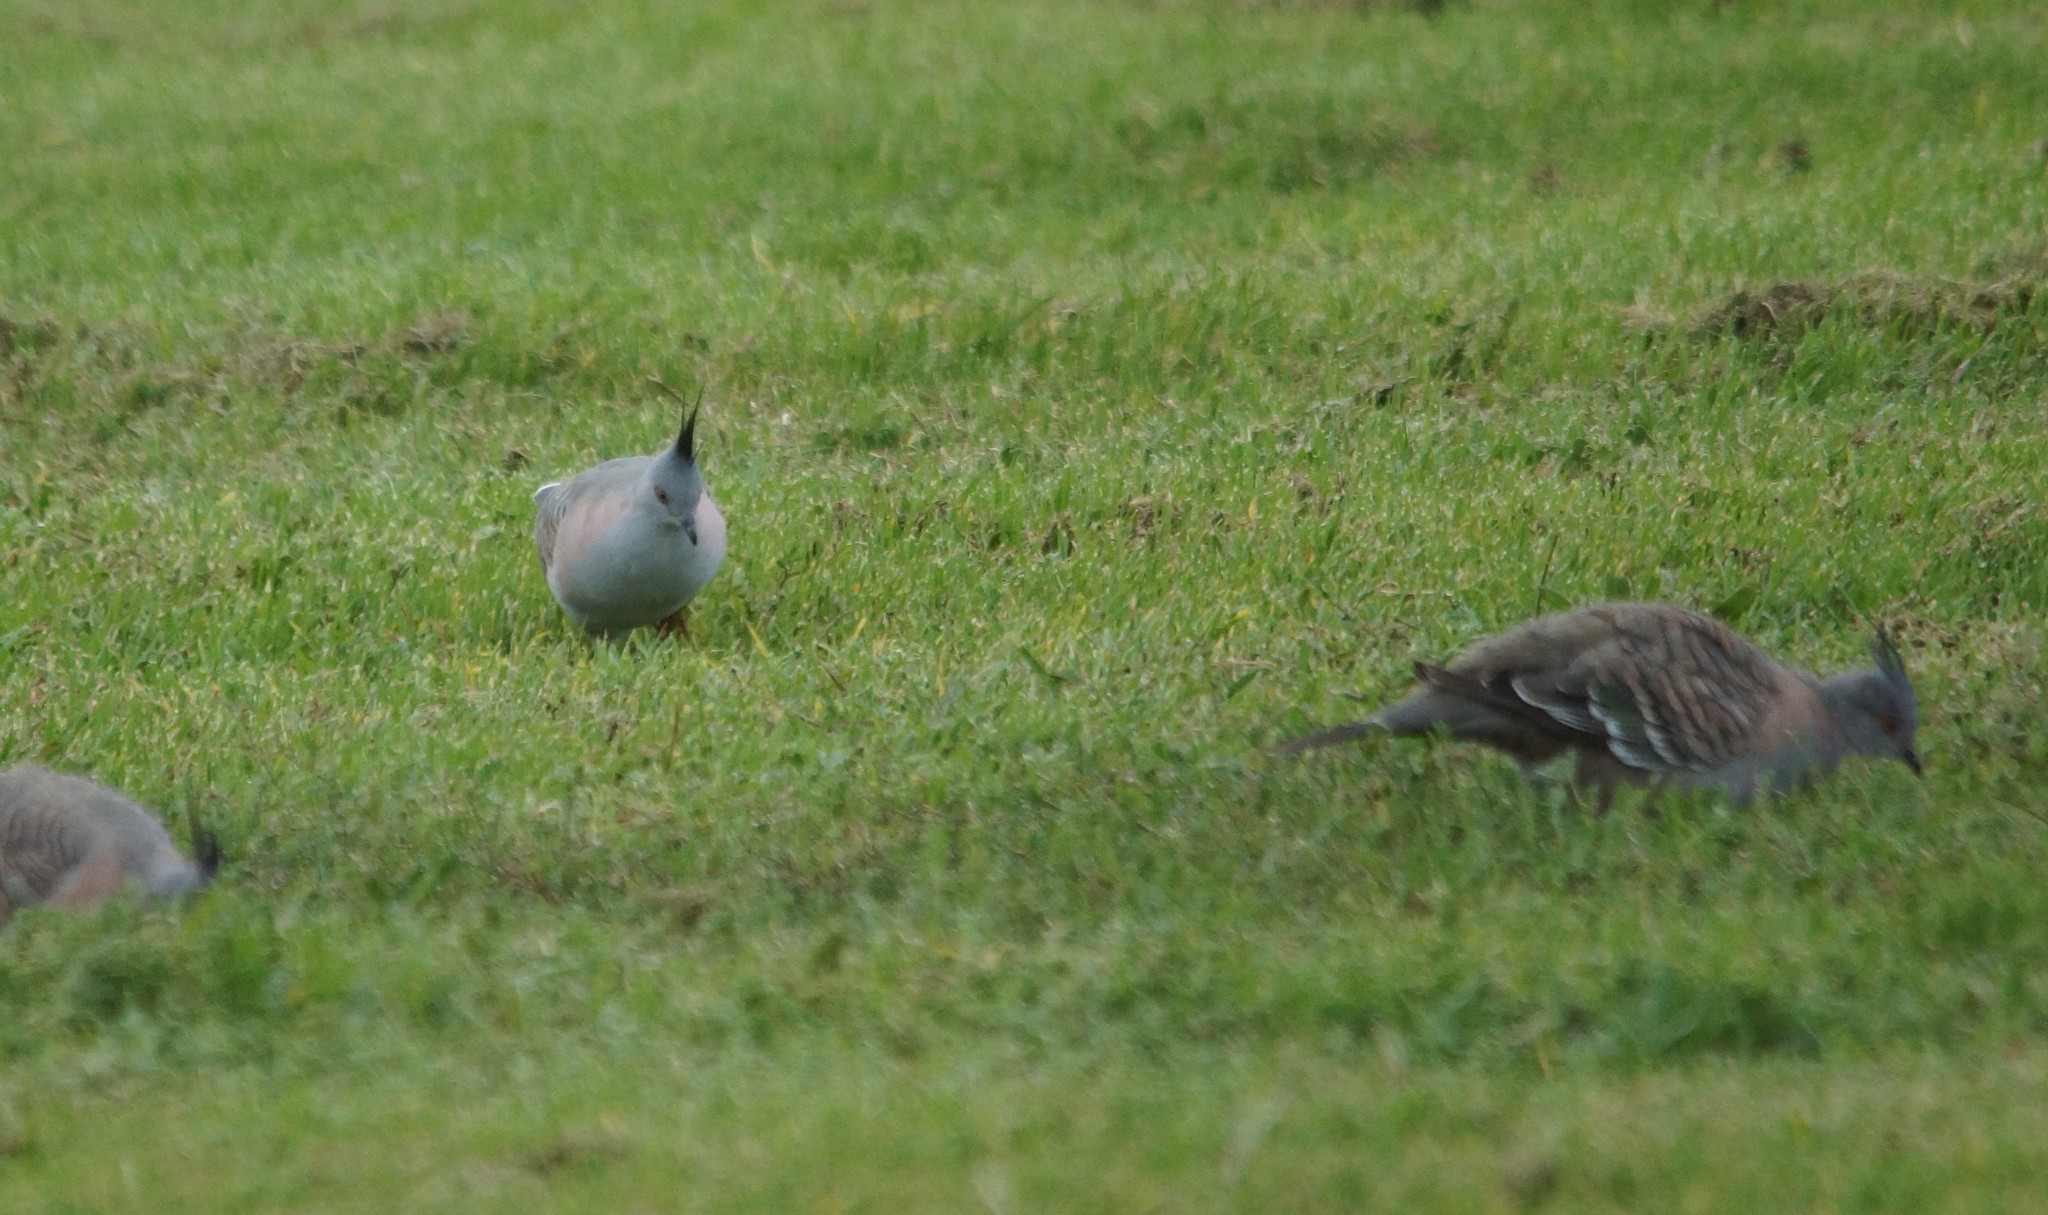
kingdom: Animalia
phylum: Chordata
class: Aves
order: Columbiformes
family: Columbidae
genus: Ocyphaps
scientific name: Ocyphaps lophotes
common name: Crested pigeon
